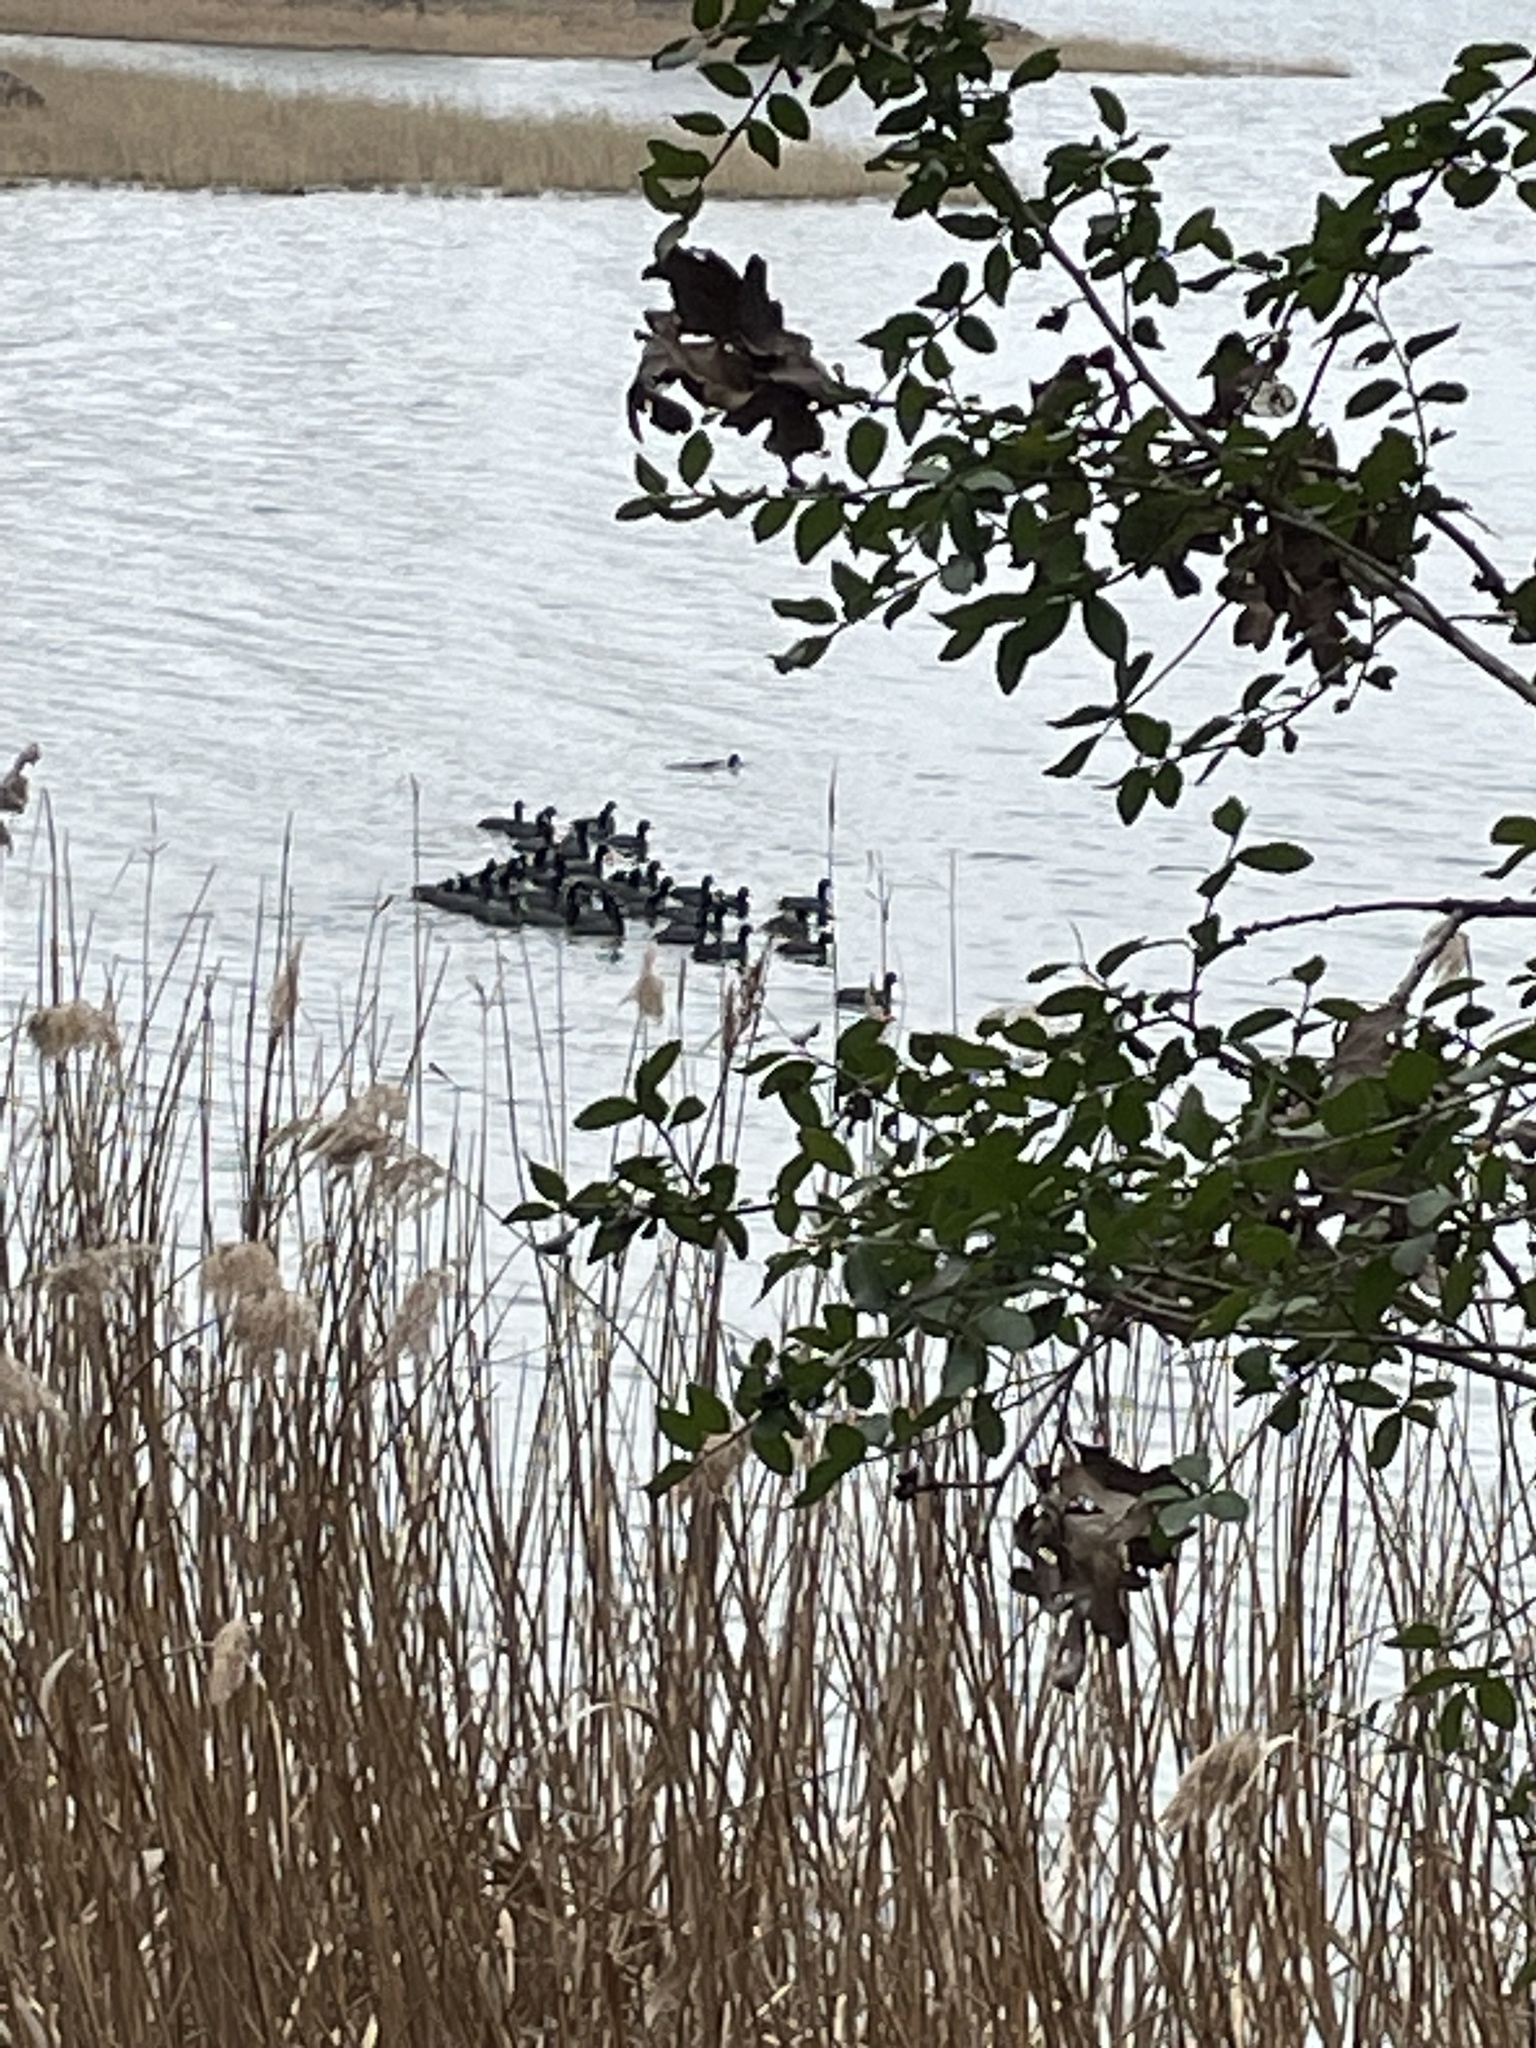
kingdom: Animalia
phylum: Chordata
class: Aves
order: Gruiformes
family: Rallidae
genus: Fulica
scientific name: Fulica americana
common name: American coot
